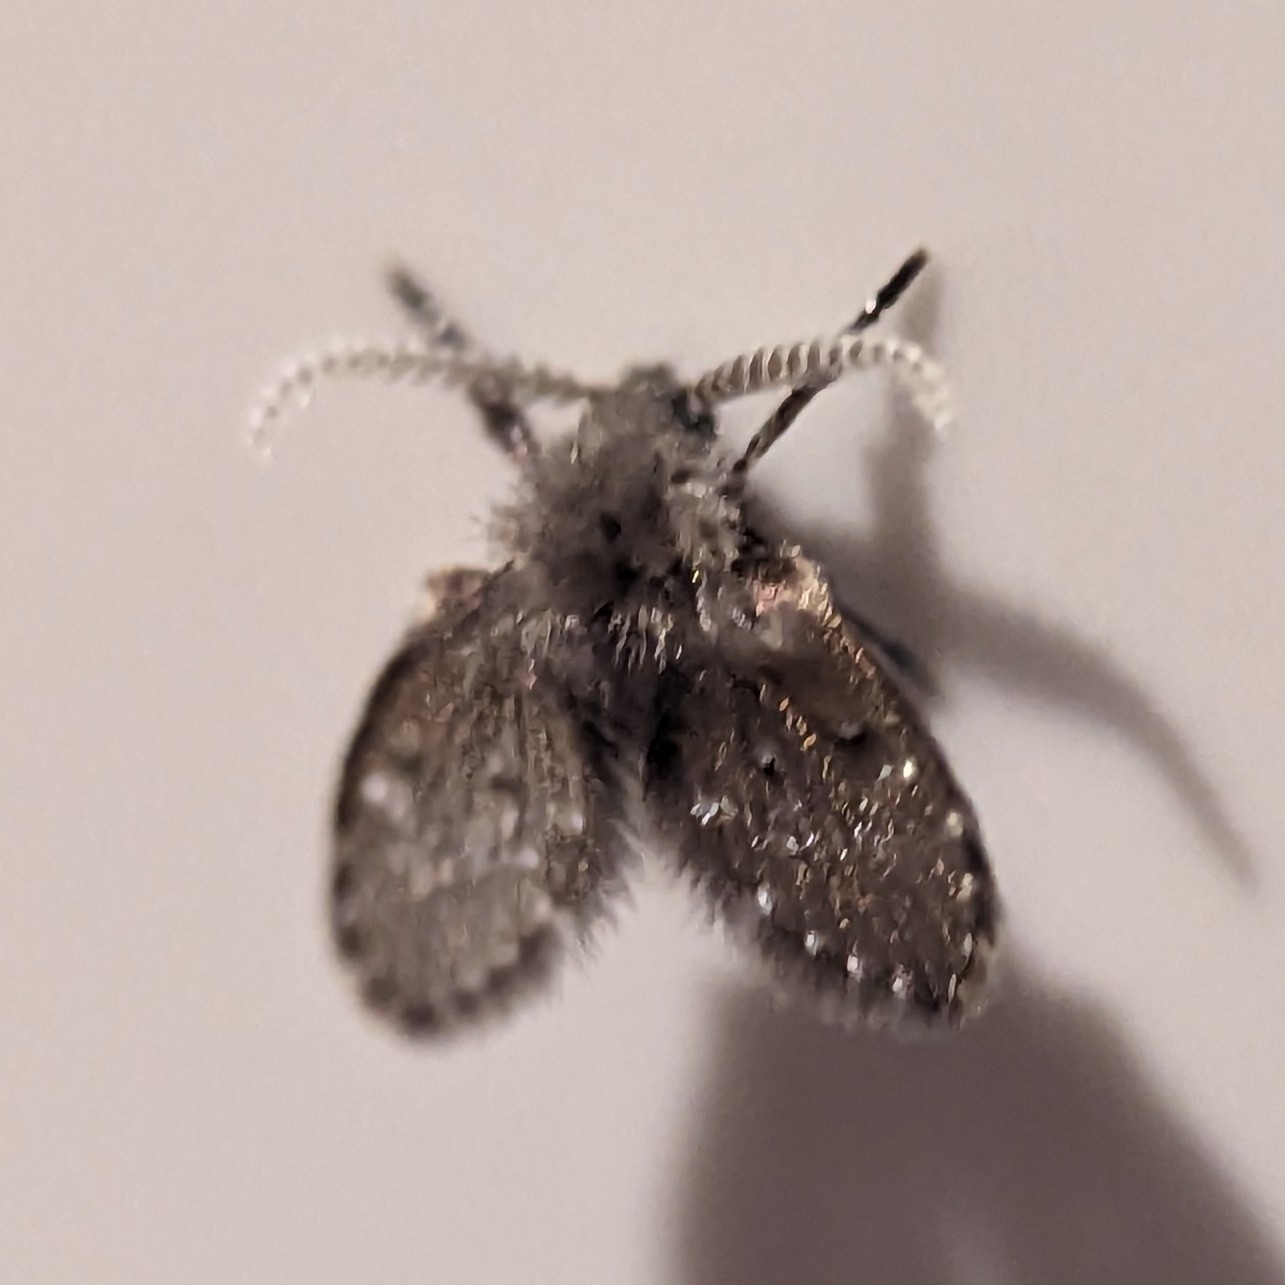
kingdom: Animalia
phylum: Arthropoda
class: Insecta
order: Diptera
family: Psychodidae
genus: Clogmia
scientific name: Clogmia albipunctatus
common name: White-spotted moth fly
